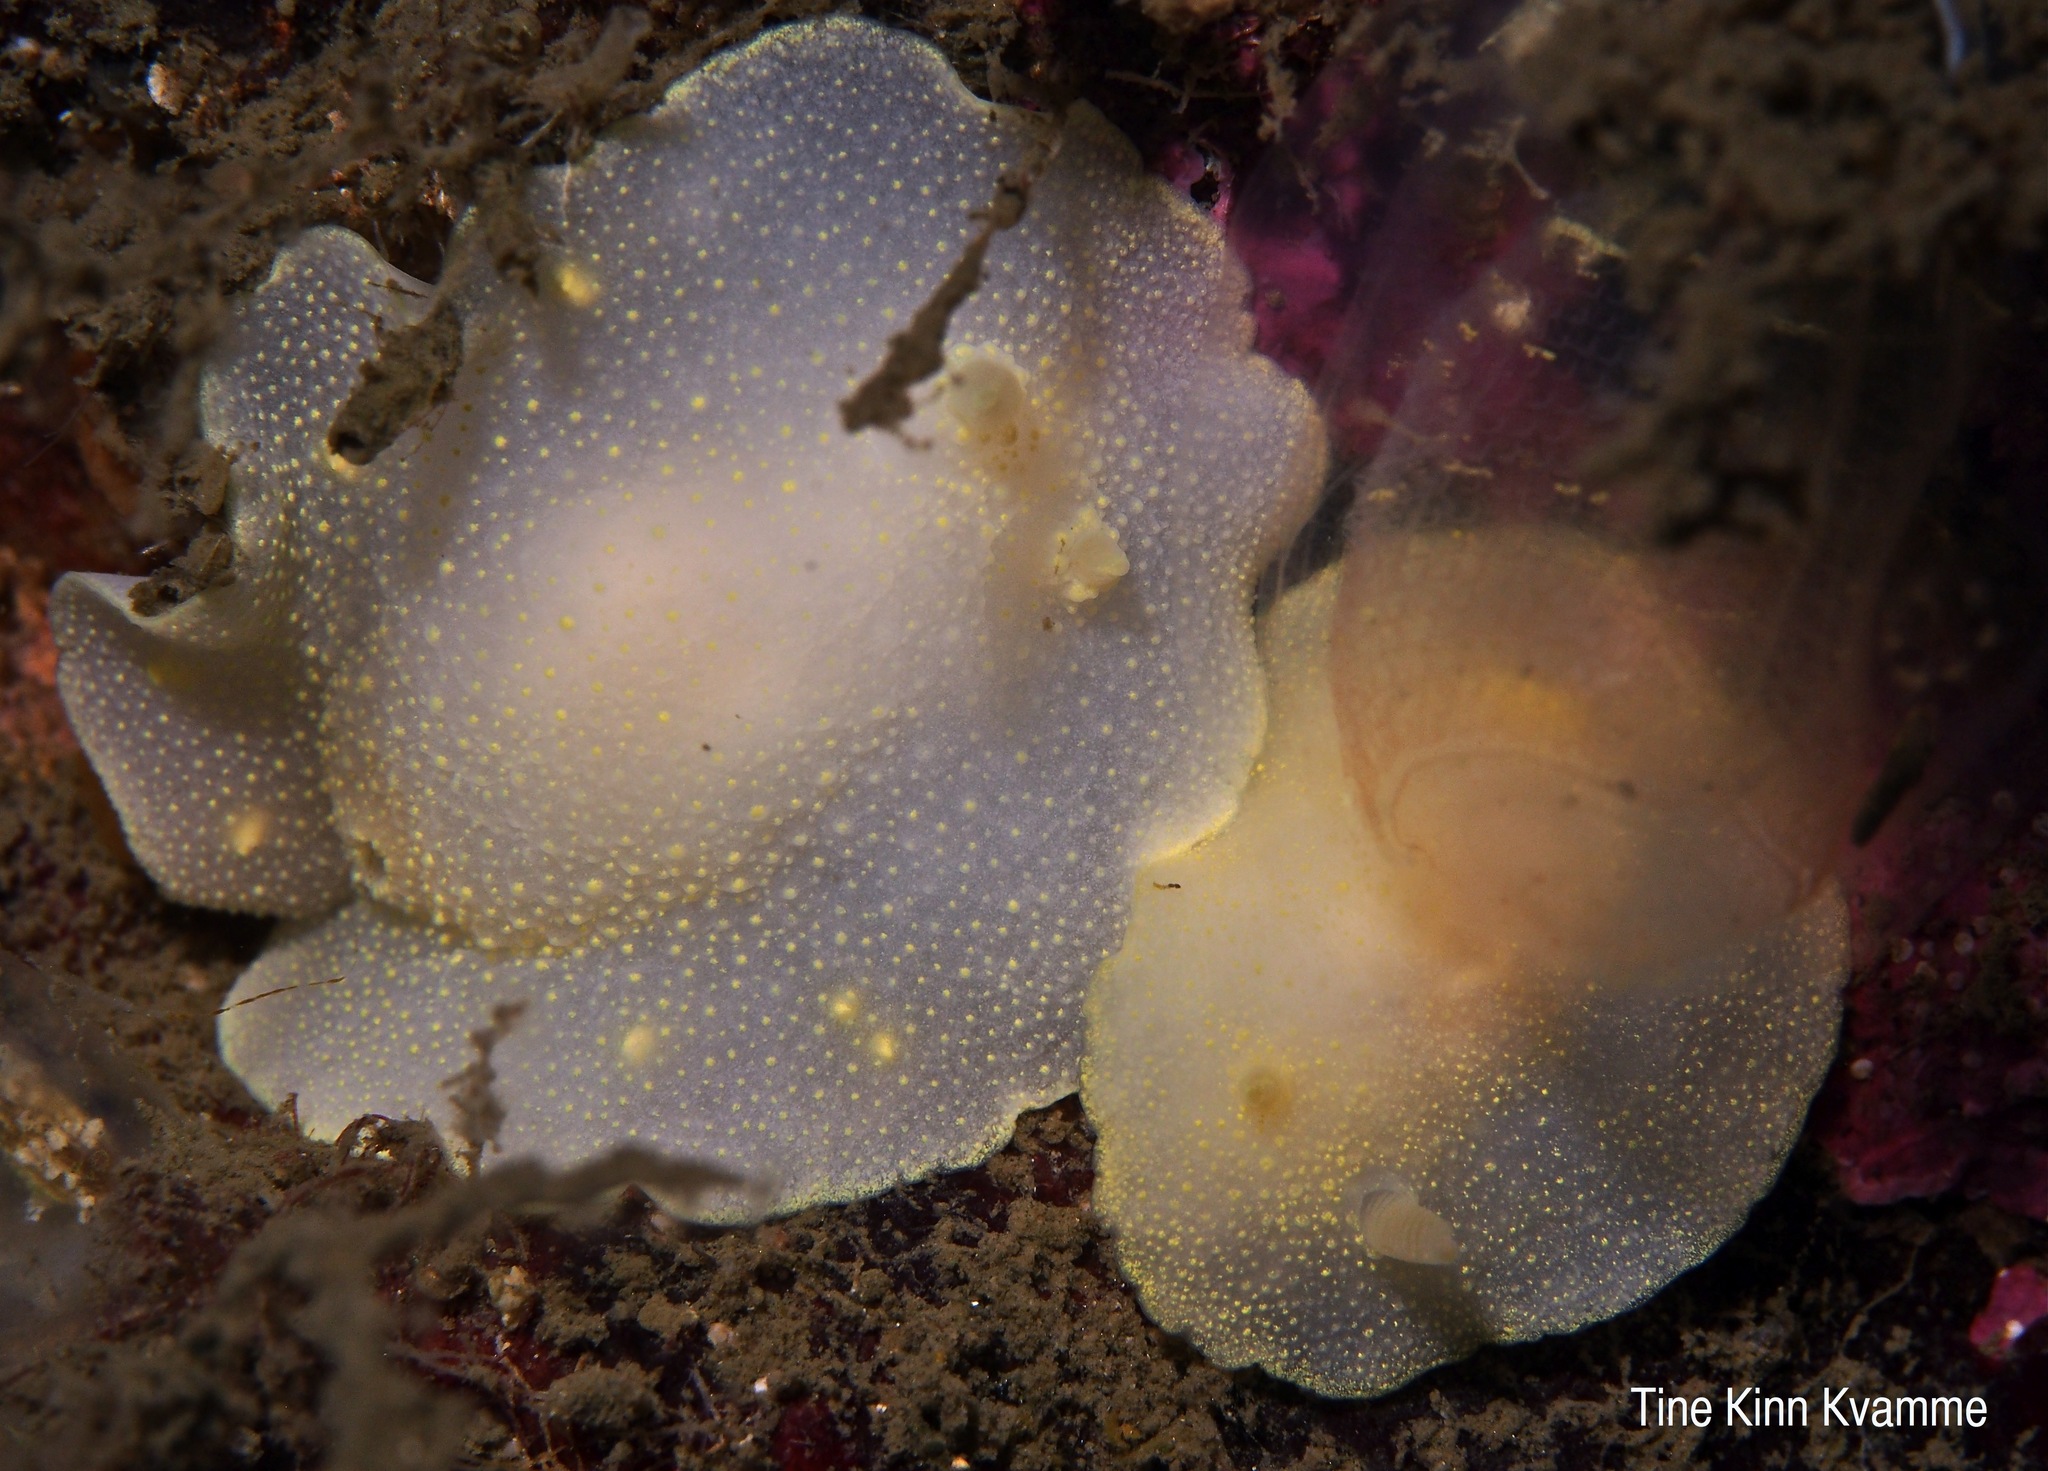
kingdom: Animalia
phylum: Mollusca
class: Gastropoda
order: Nudibranchia
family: Cadlinidae
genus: Cadlina
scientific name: Cadlina laevis
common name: White atlantic cadlina
